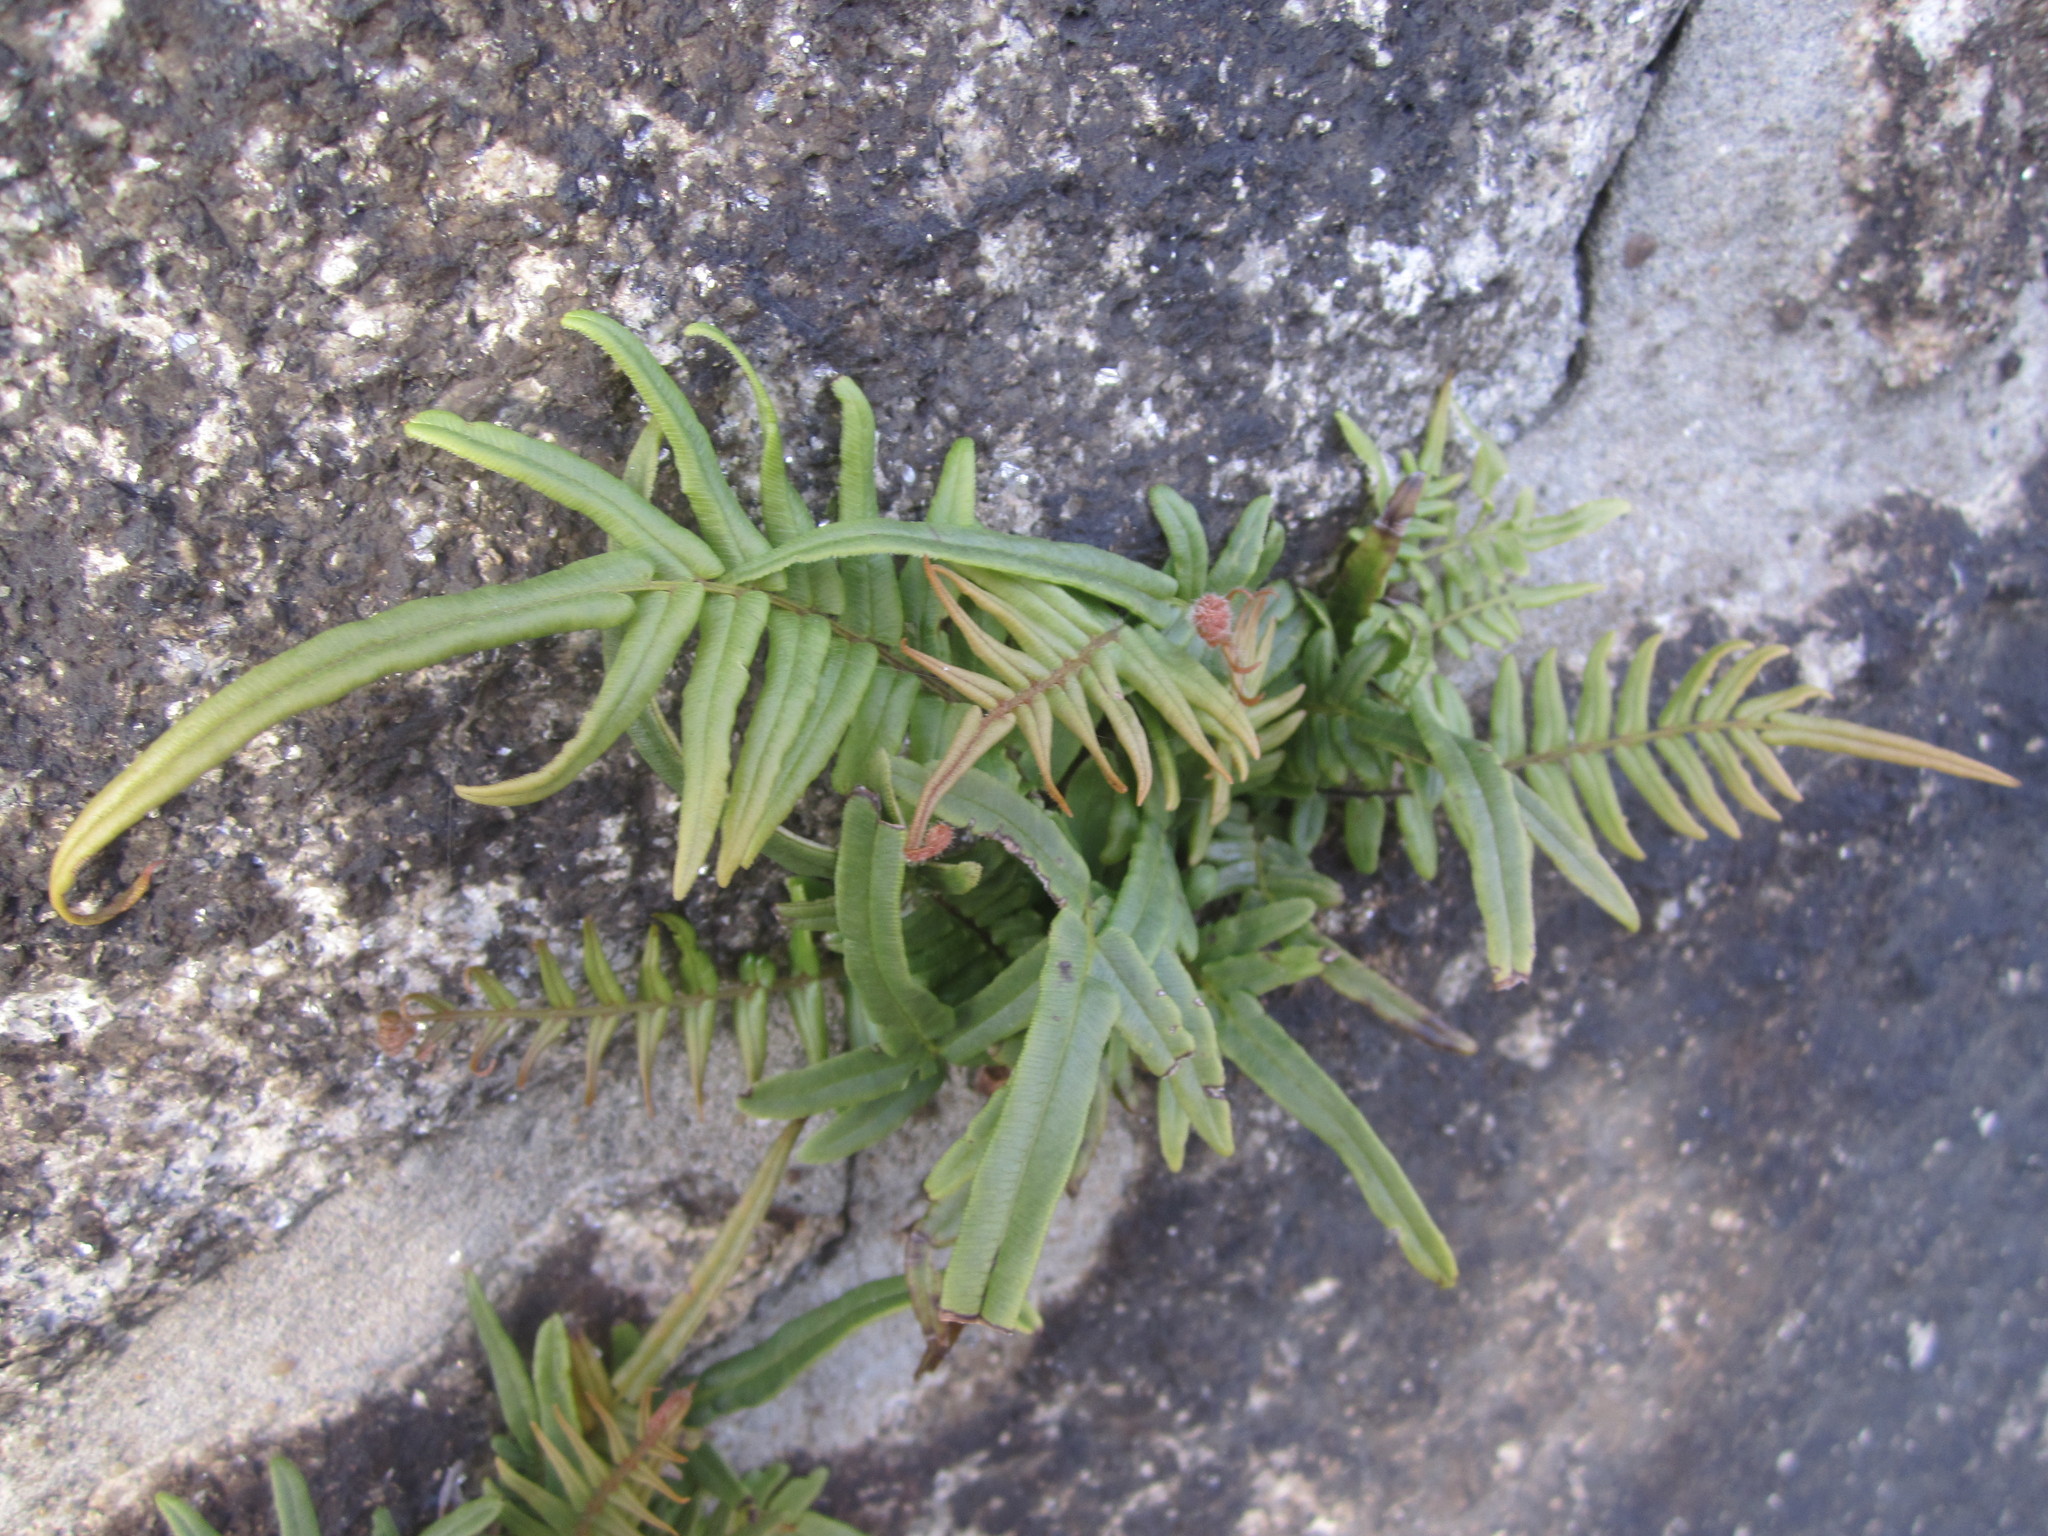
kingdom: Plantae
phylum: Tracheophyta
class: Polypodiopsida
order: Polypodiales
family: Pteridaceae
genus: Pteris
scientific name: Pteris vittata
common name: Ladder brake
